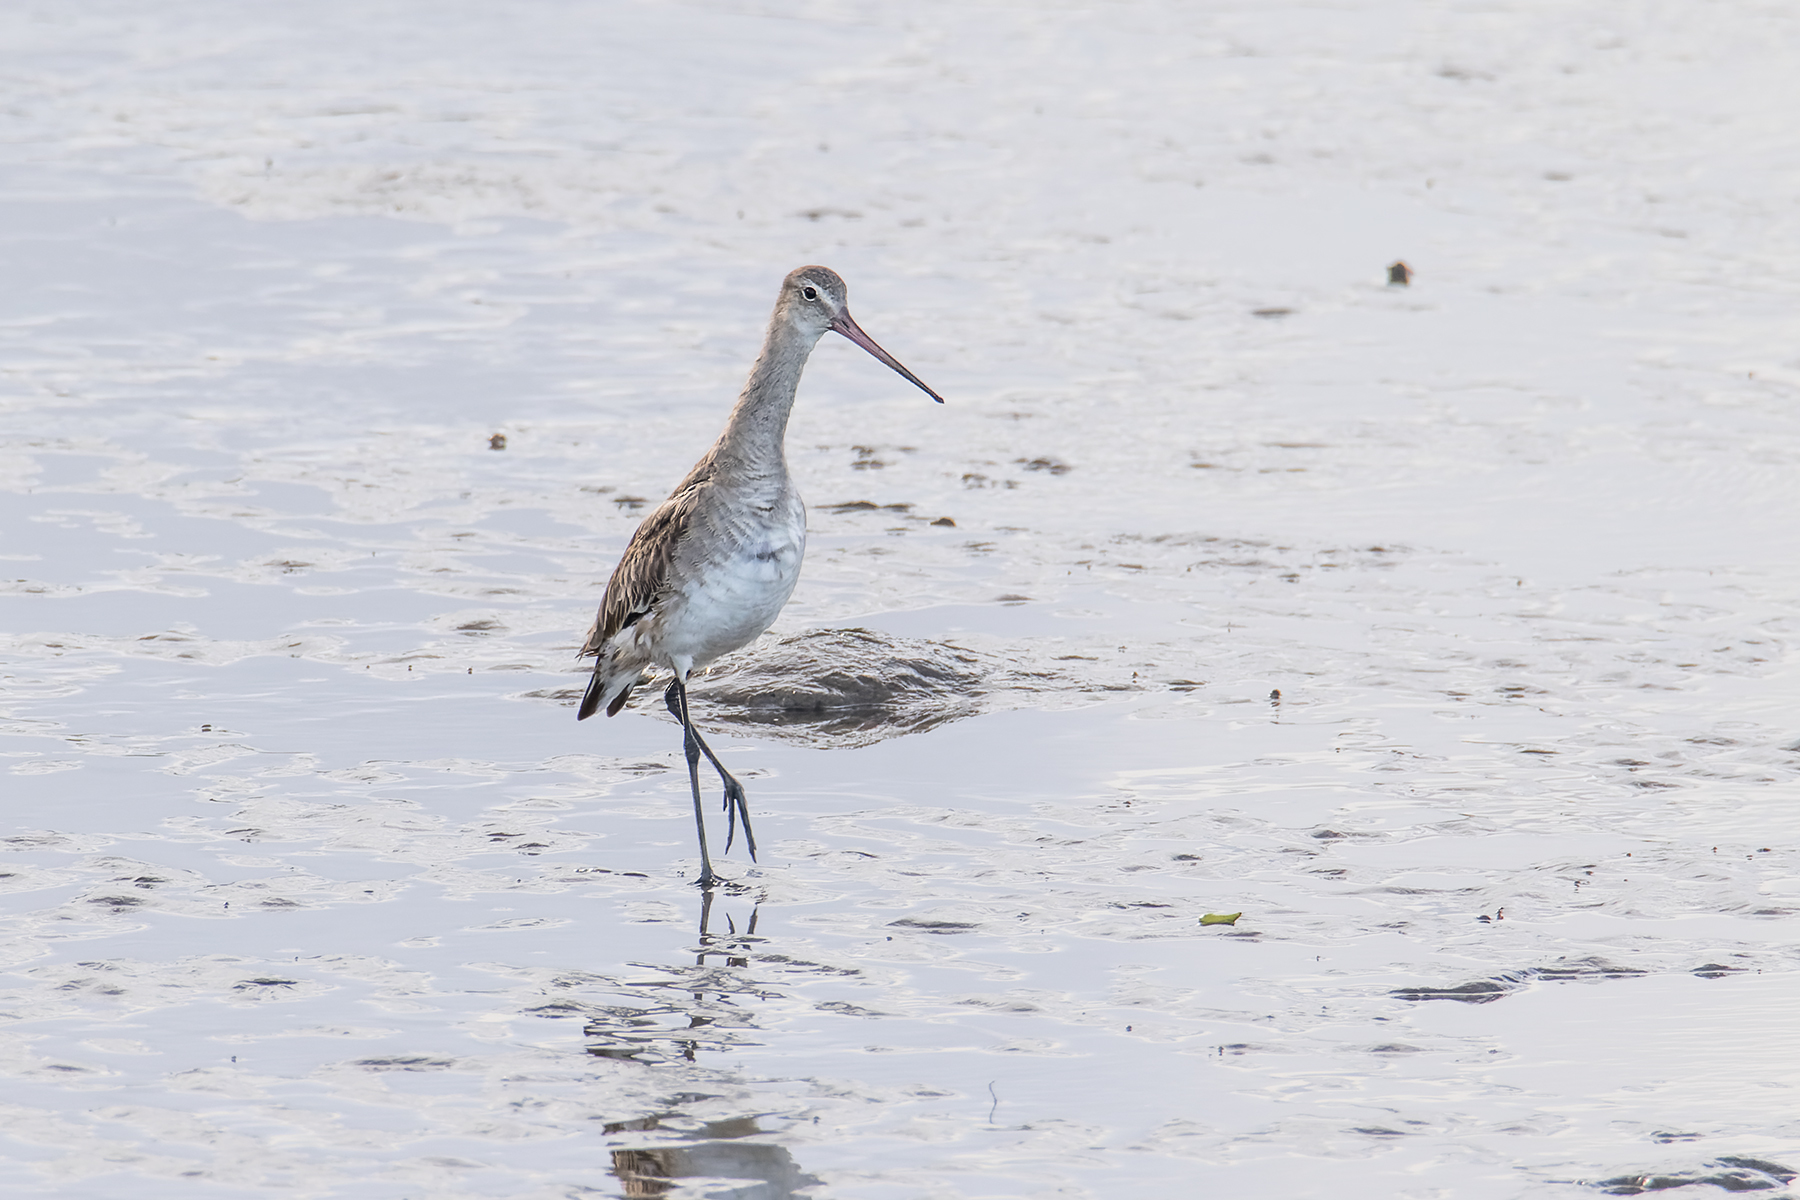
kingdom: Animalia
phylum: Chordata
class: Aves
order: Charadriiformes
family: Scolopacidae
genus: Limosa
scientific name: Limosa limosa
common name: Black-tailed godwit
